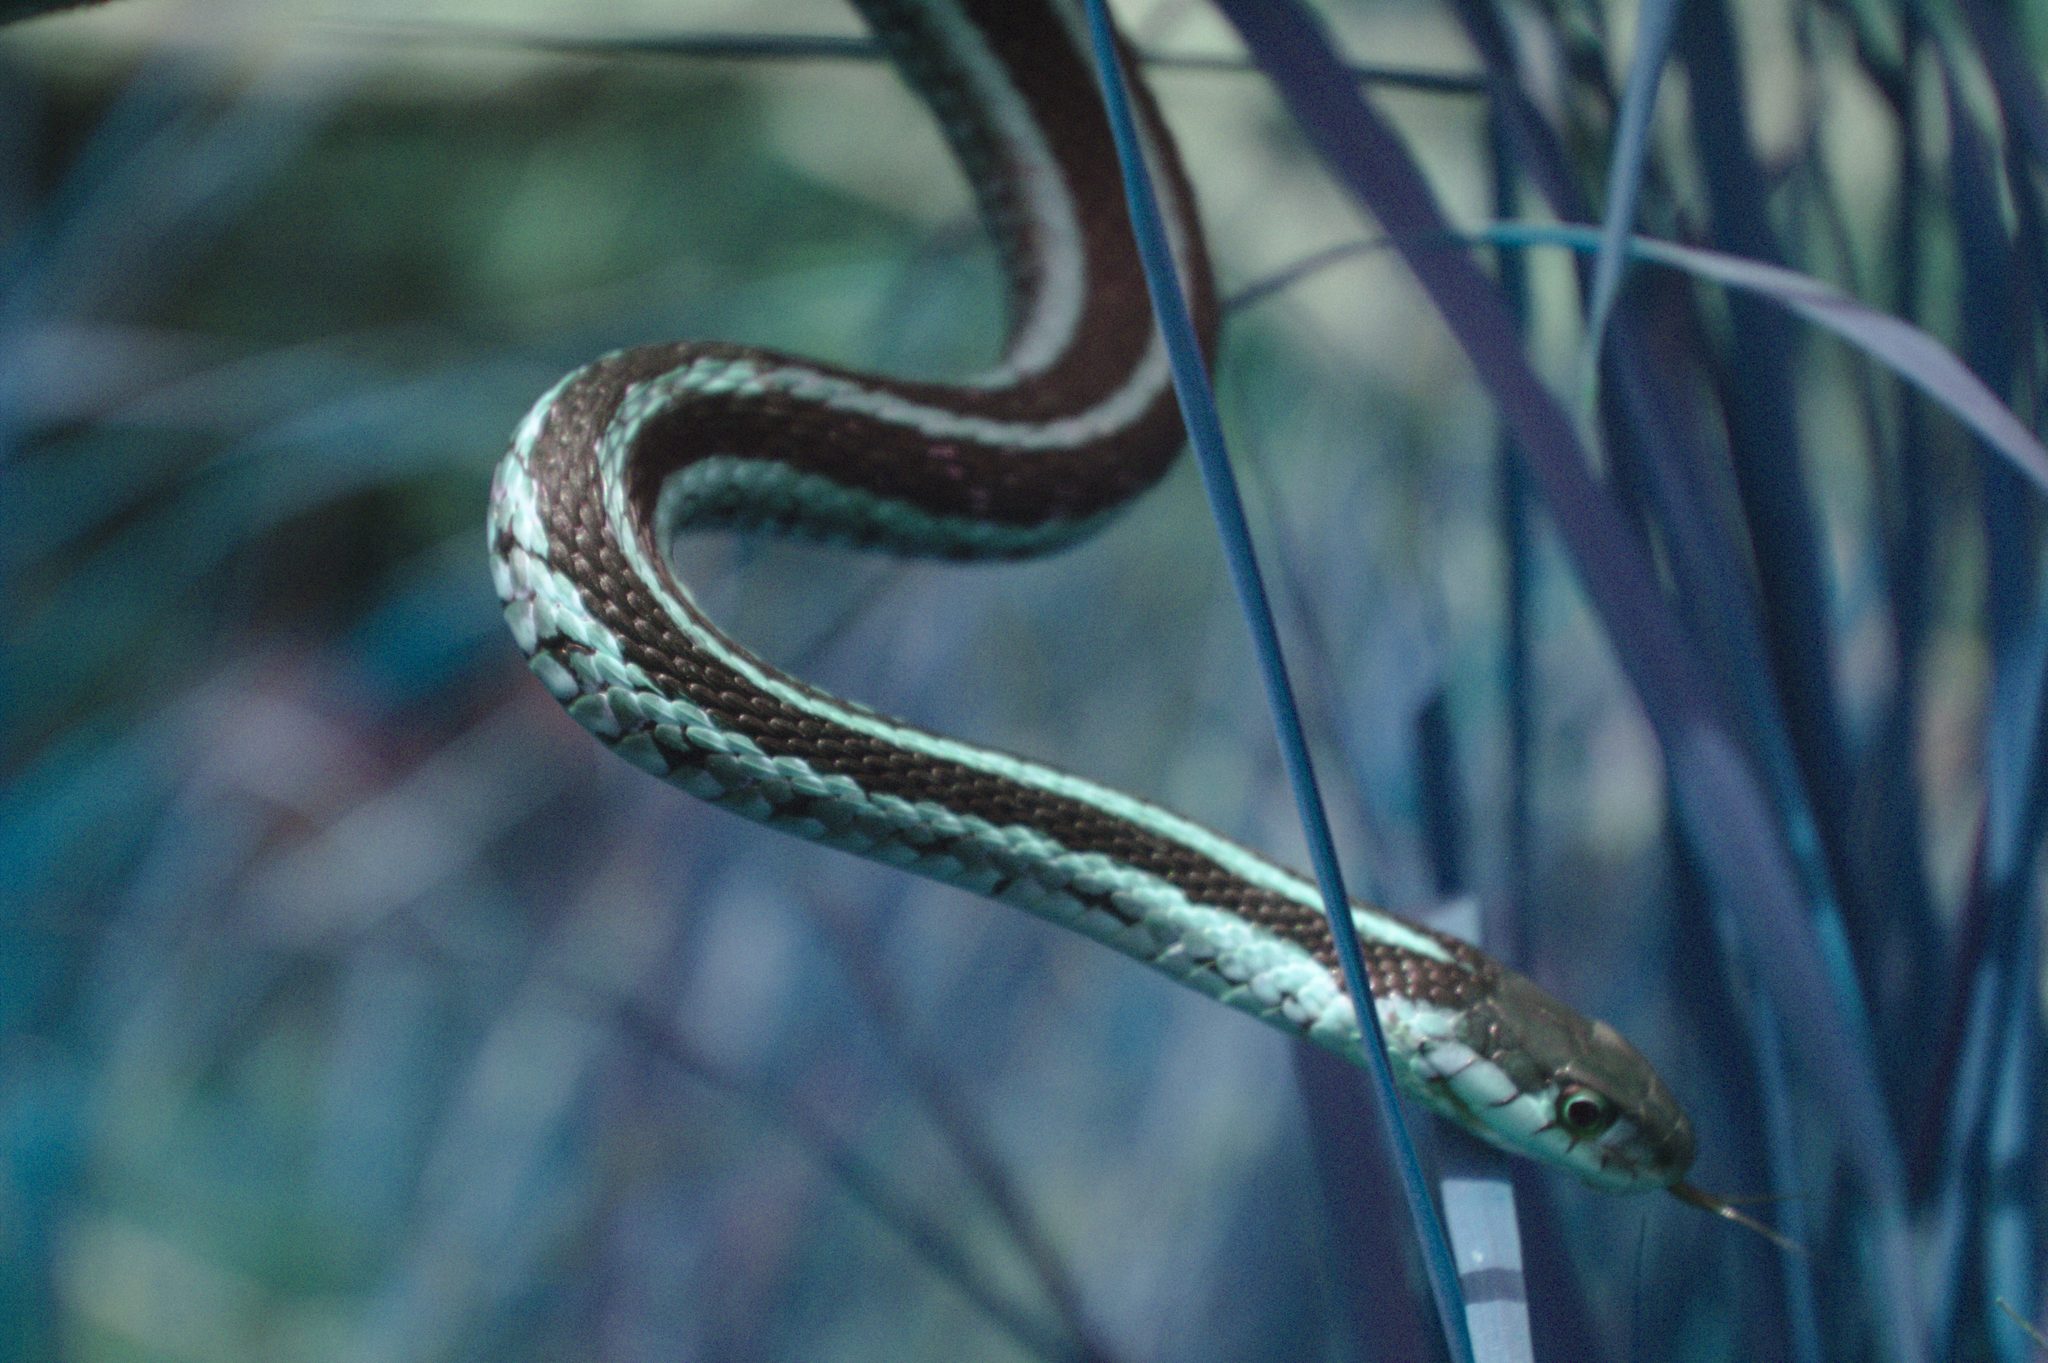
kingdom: Animalia
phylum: Chordata
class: Squamata
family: Colubridae
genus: Thamnophis
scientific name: Thamnophis sirtalis
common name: Common garter snake
